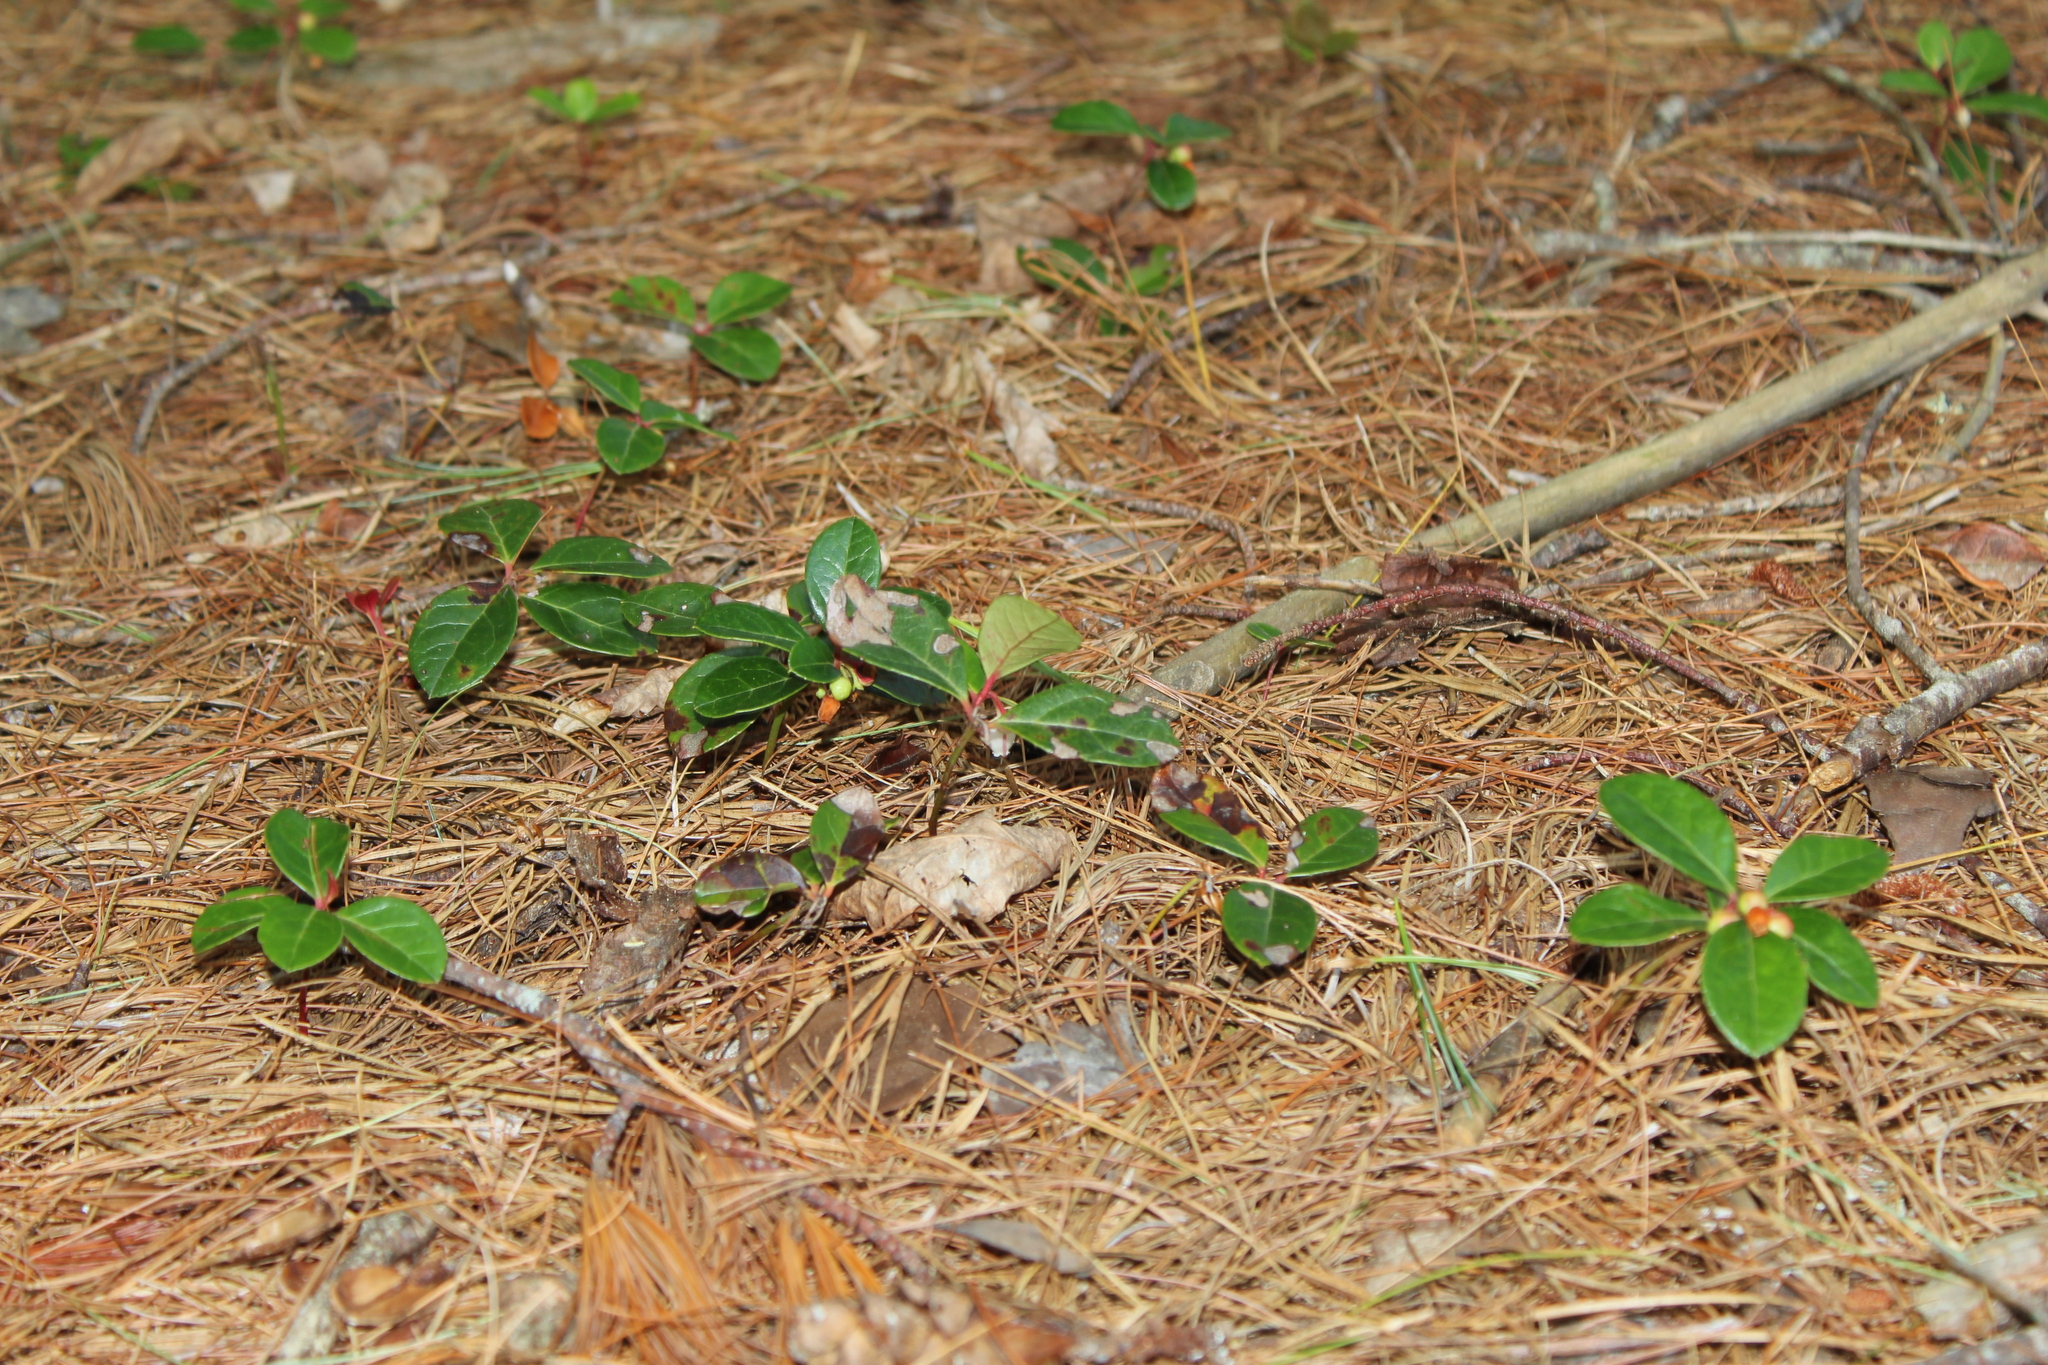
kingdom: Plantae
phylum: Tracheophyta
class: Magnoliopsida
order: Ericales
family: Ericaceae
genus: Gaultheria
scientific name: Gaultheria procumbens
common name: Checkerberry
